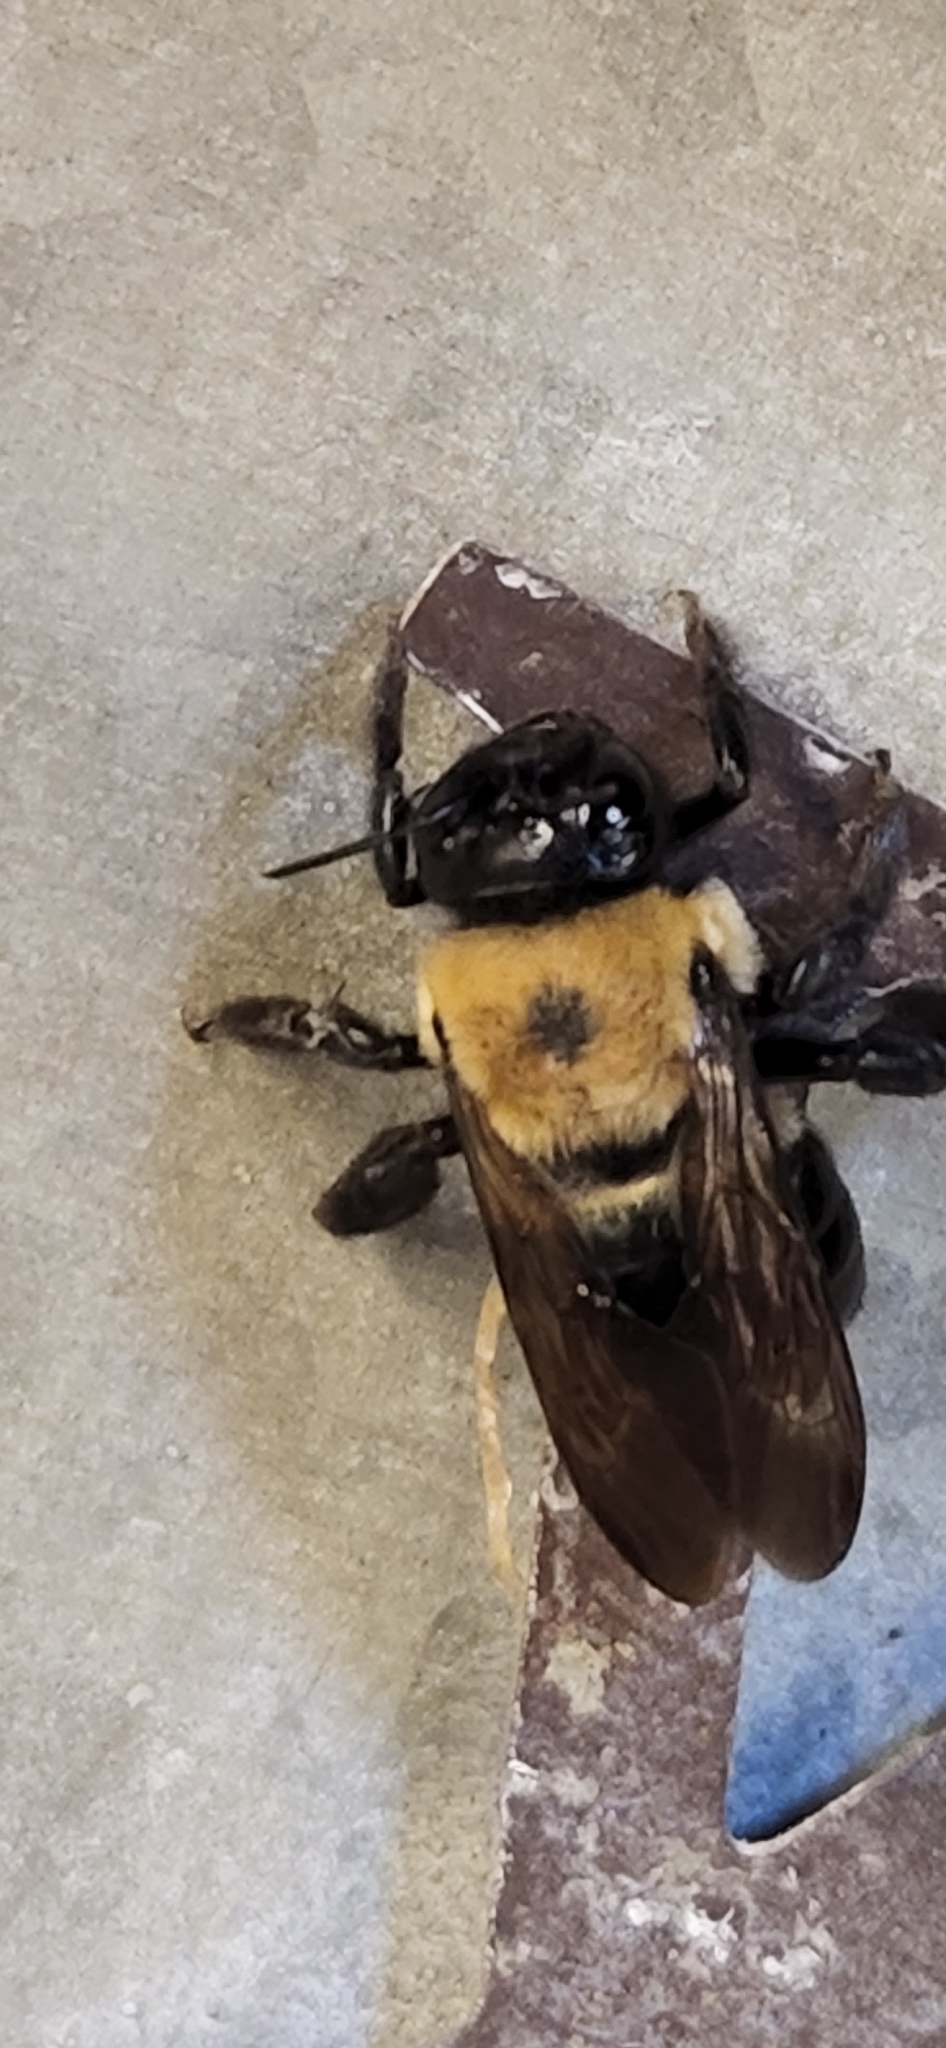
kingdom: Animalia
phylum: Arthropoda
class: Insecta
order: Hymenoptera
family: Apidae
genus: Xylocopa
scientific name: Xylocopa virginica
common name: Carpenter bee
